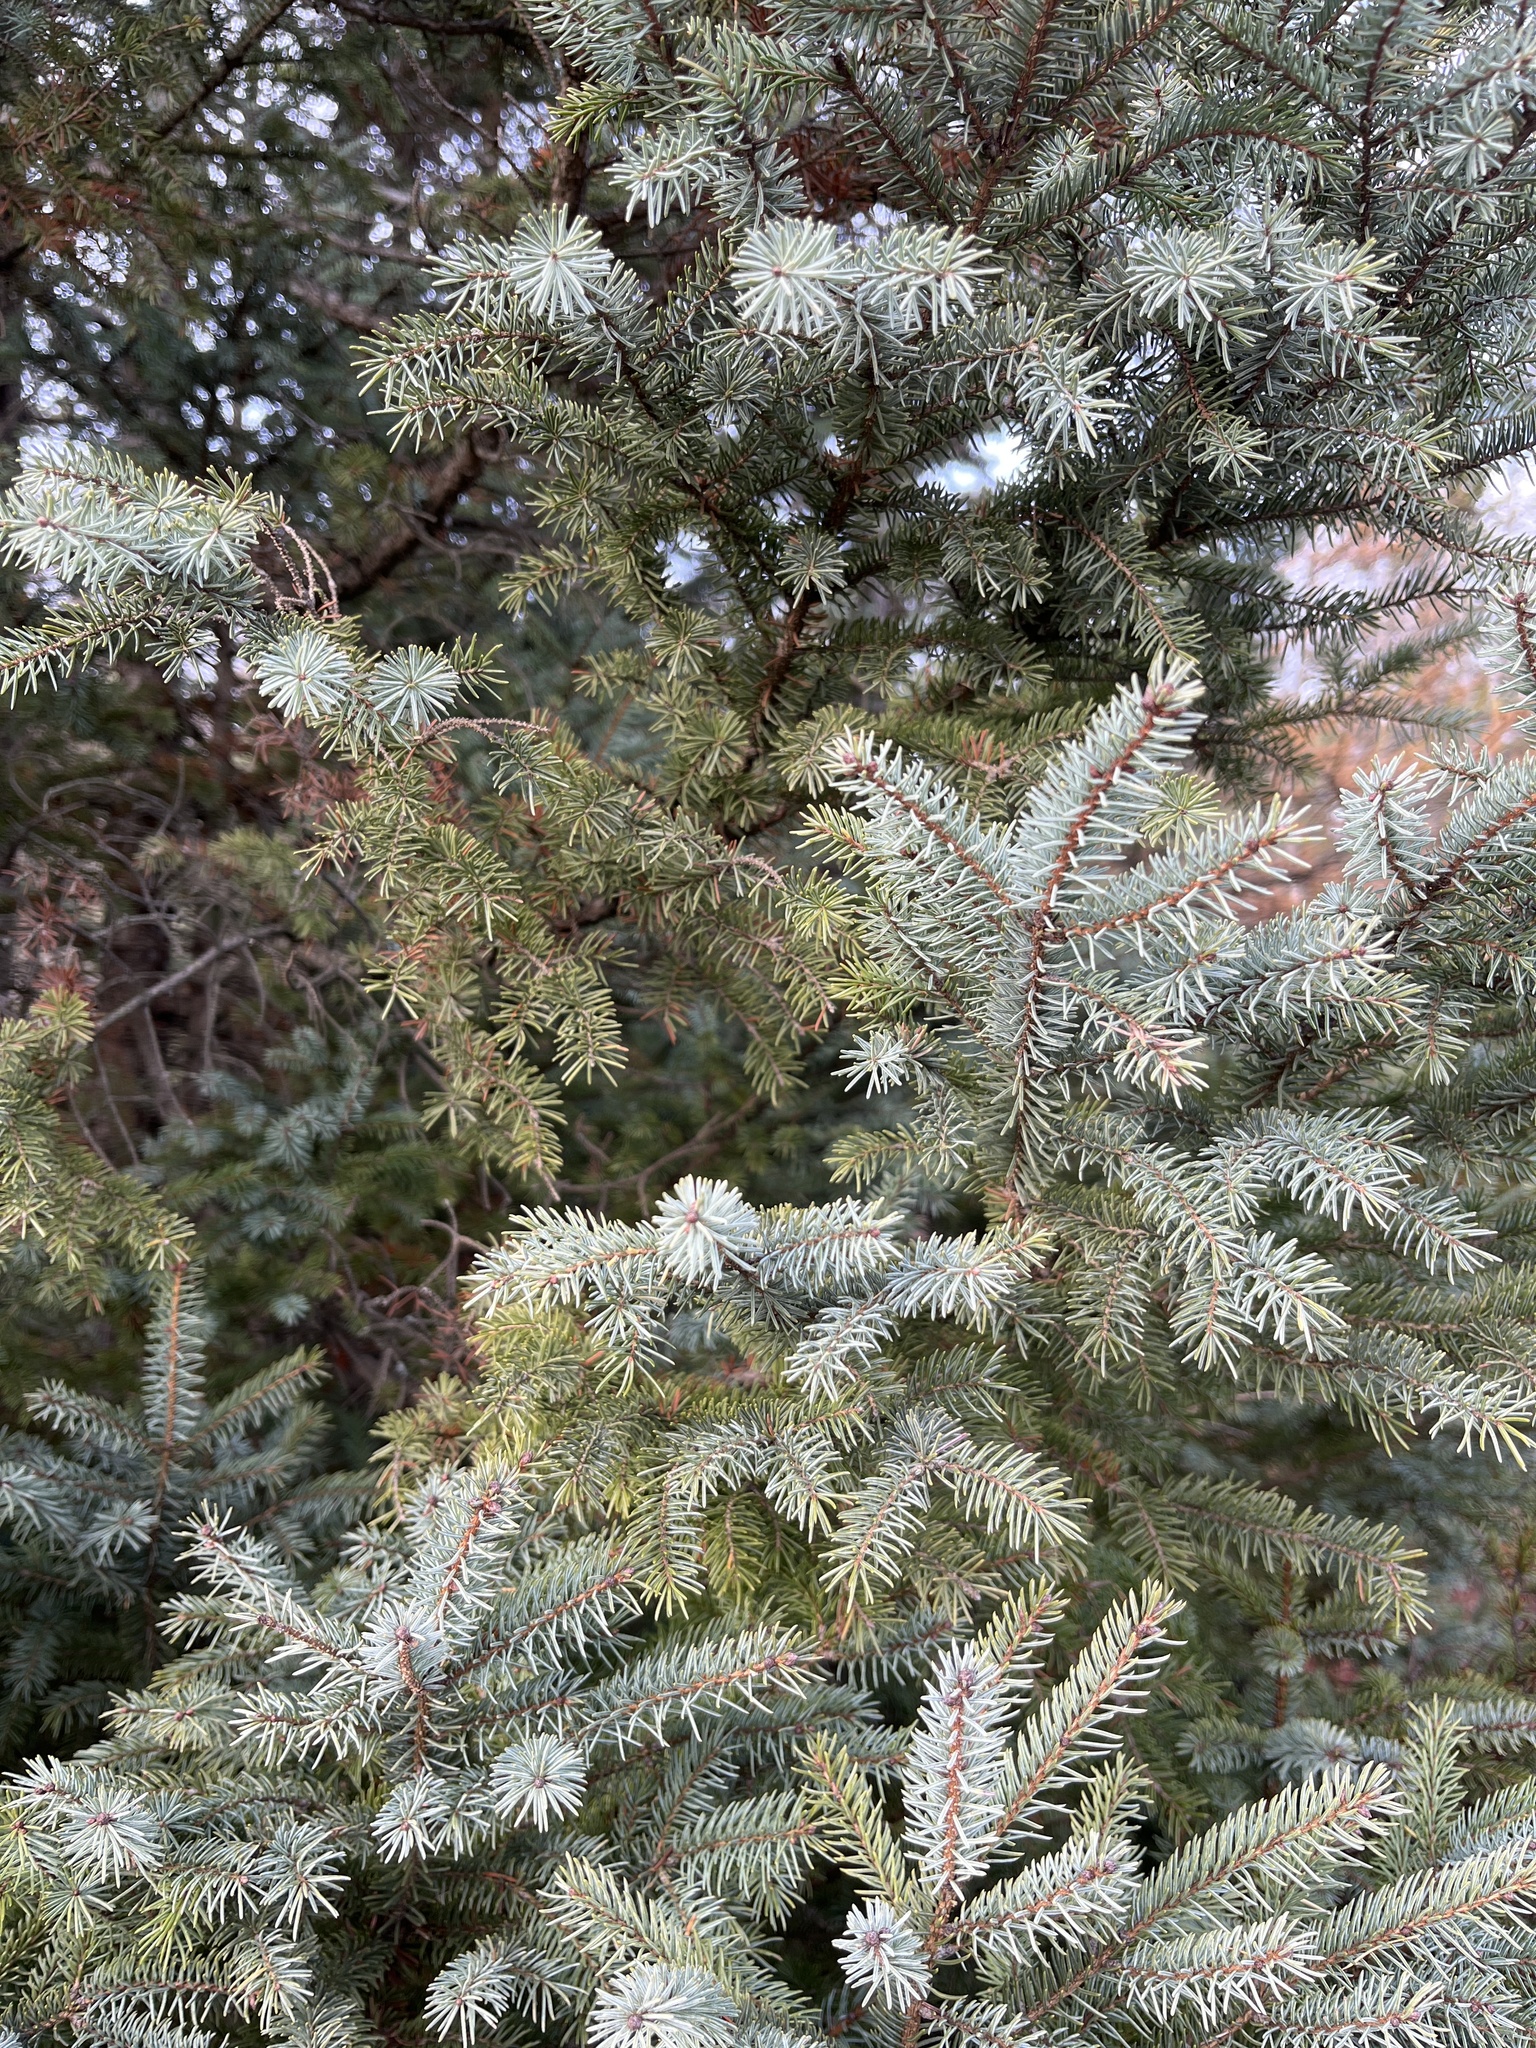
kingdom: Plantae
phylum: Tracheophyta
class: Pinopsida
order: Pinales
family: Pinaceae
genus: Picea
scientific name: Picea mariana
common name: Black spruce
